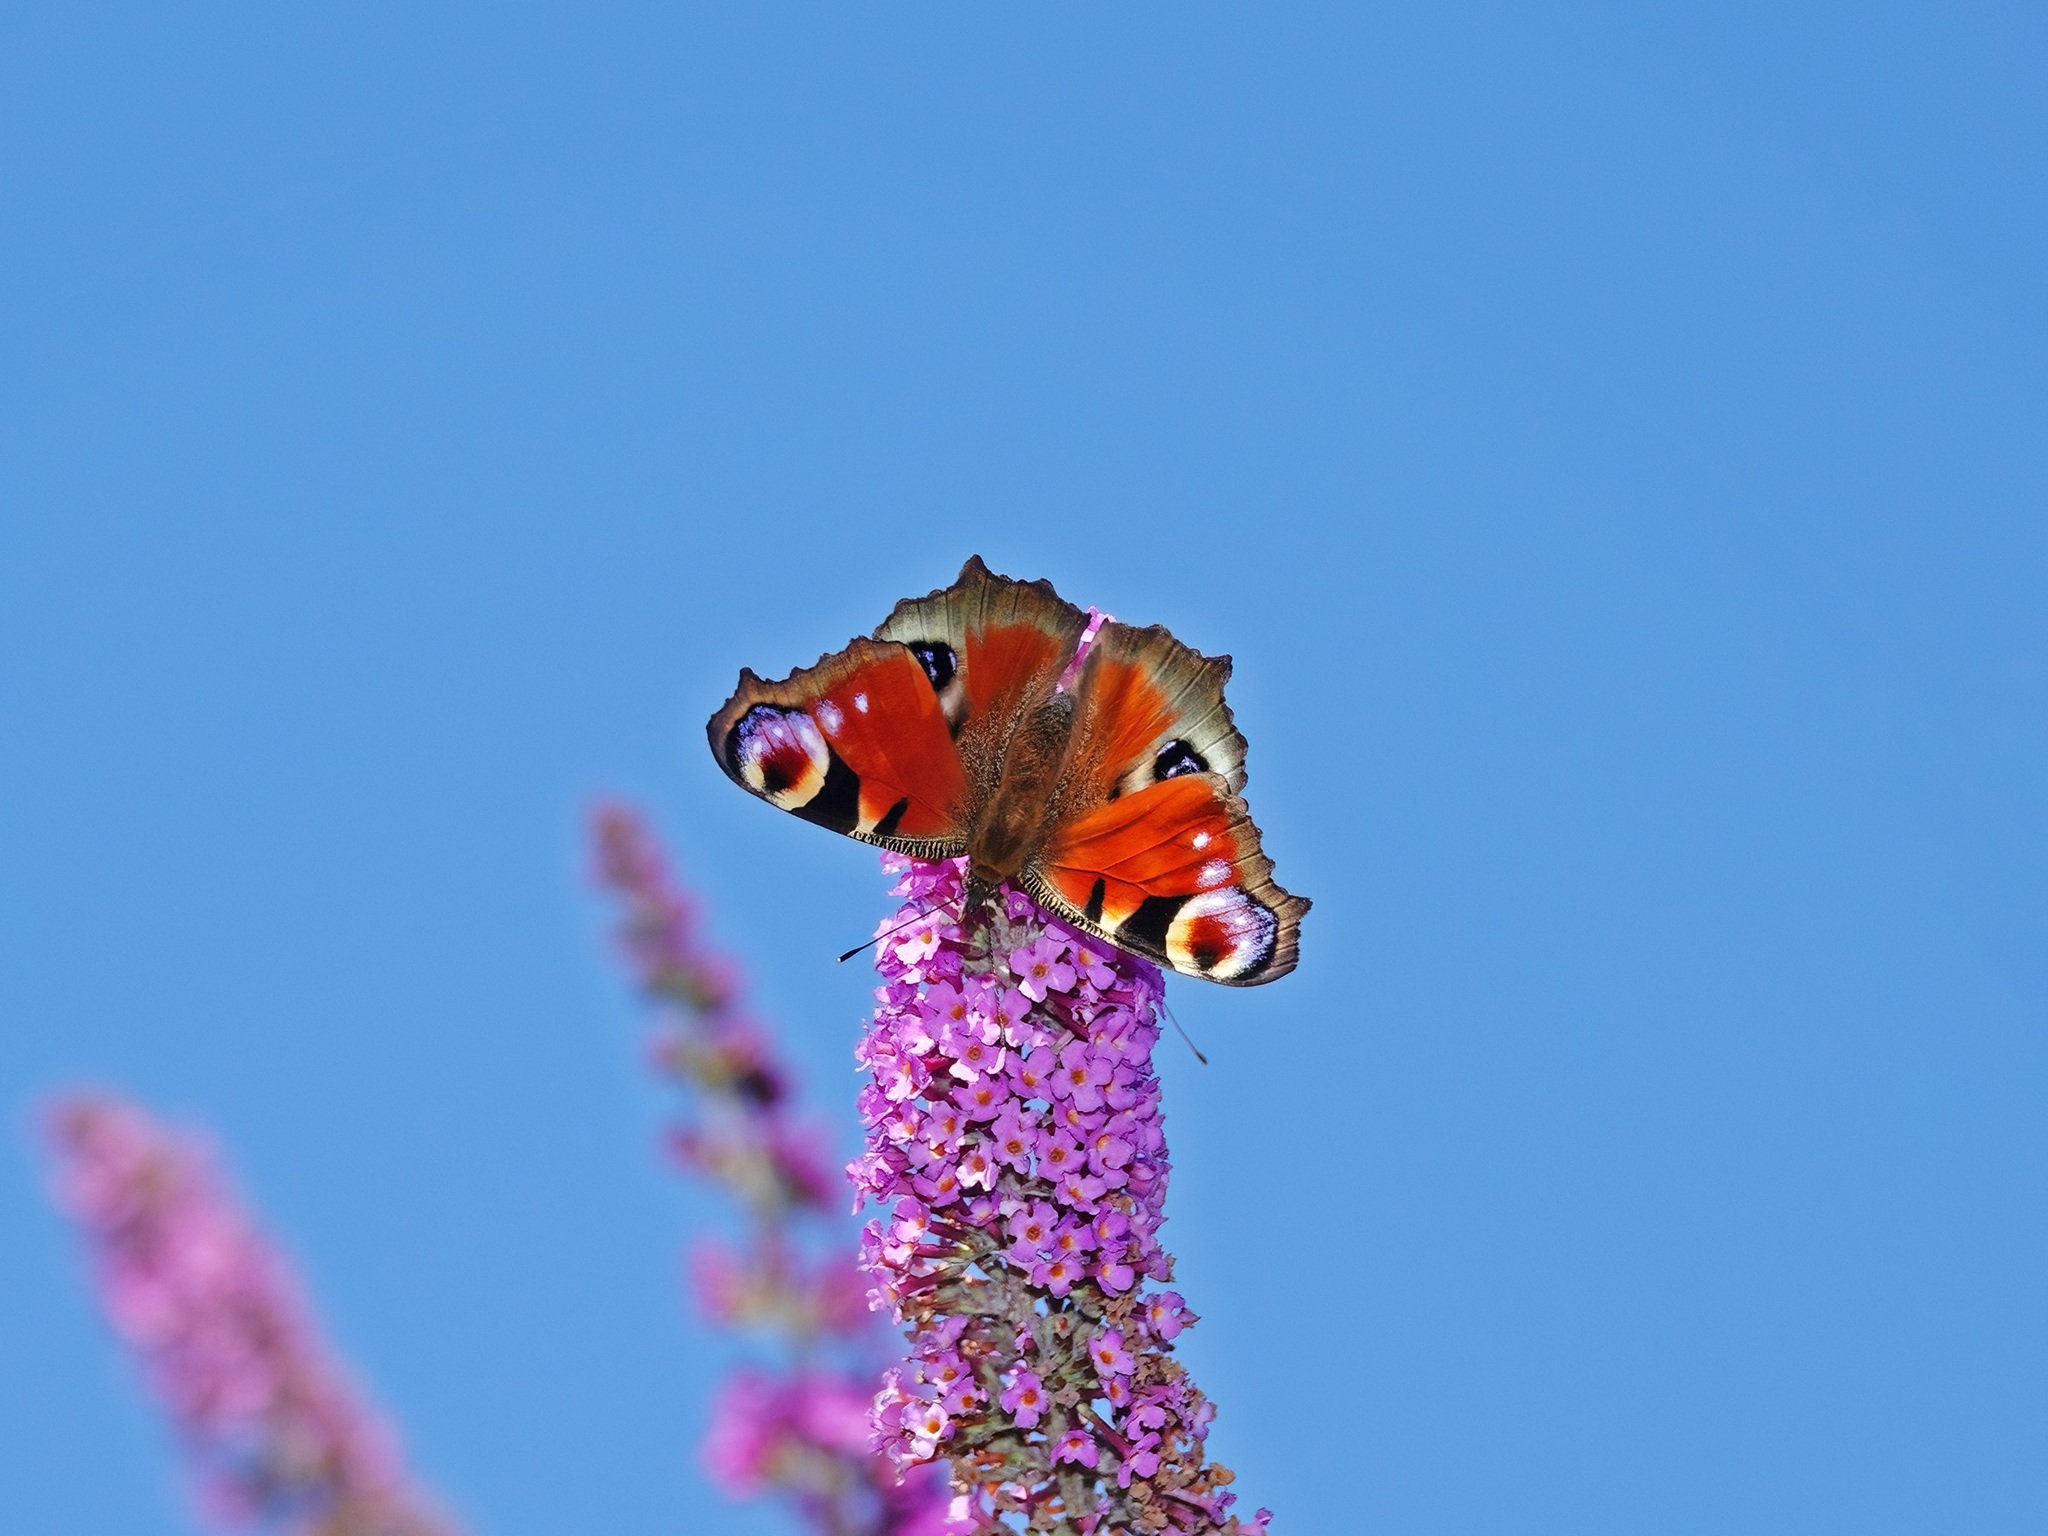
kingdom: Animalia
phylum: Arthropoda
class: Insecta
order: Lepidoptera
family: Nymphalidae
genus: Aglais
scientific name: Aglais io
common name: Peacock
